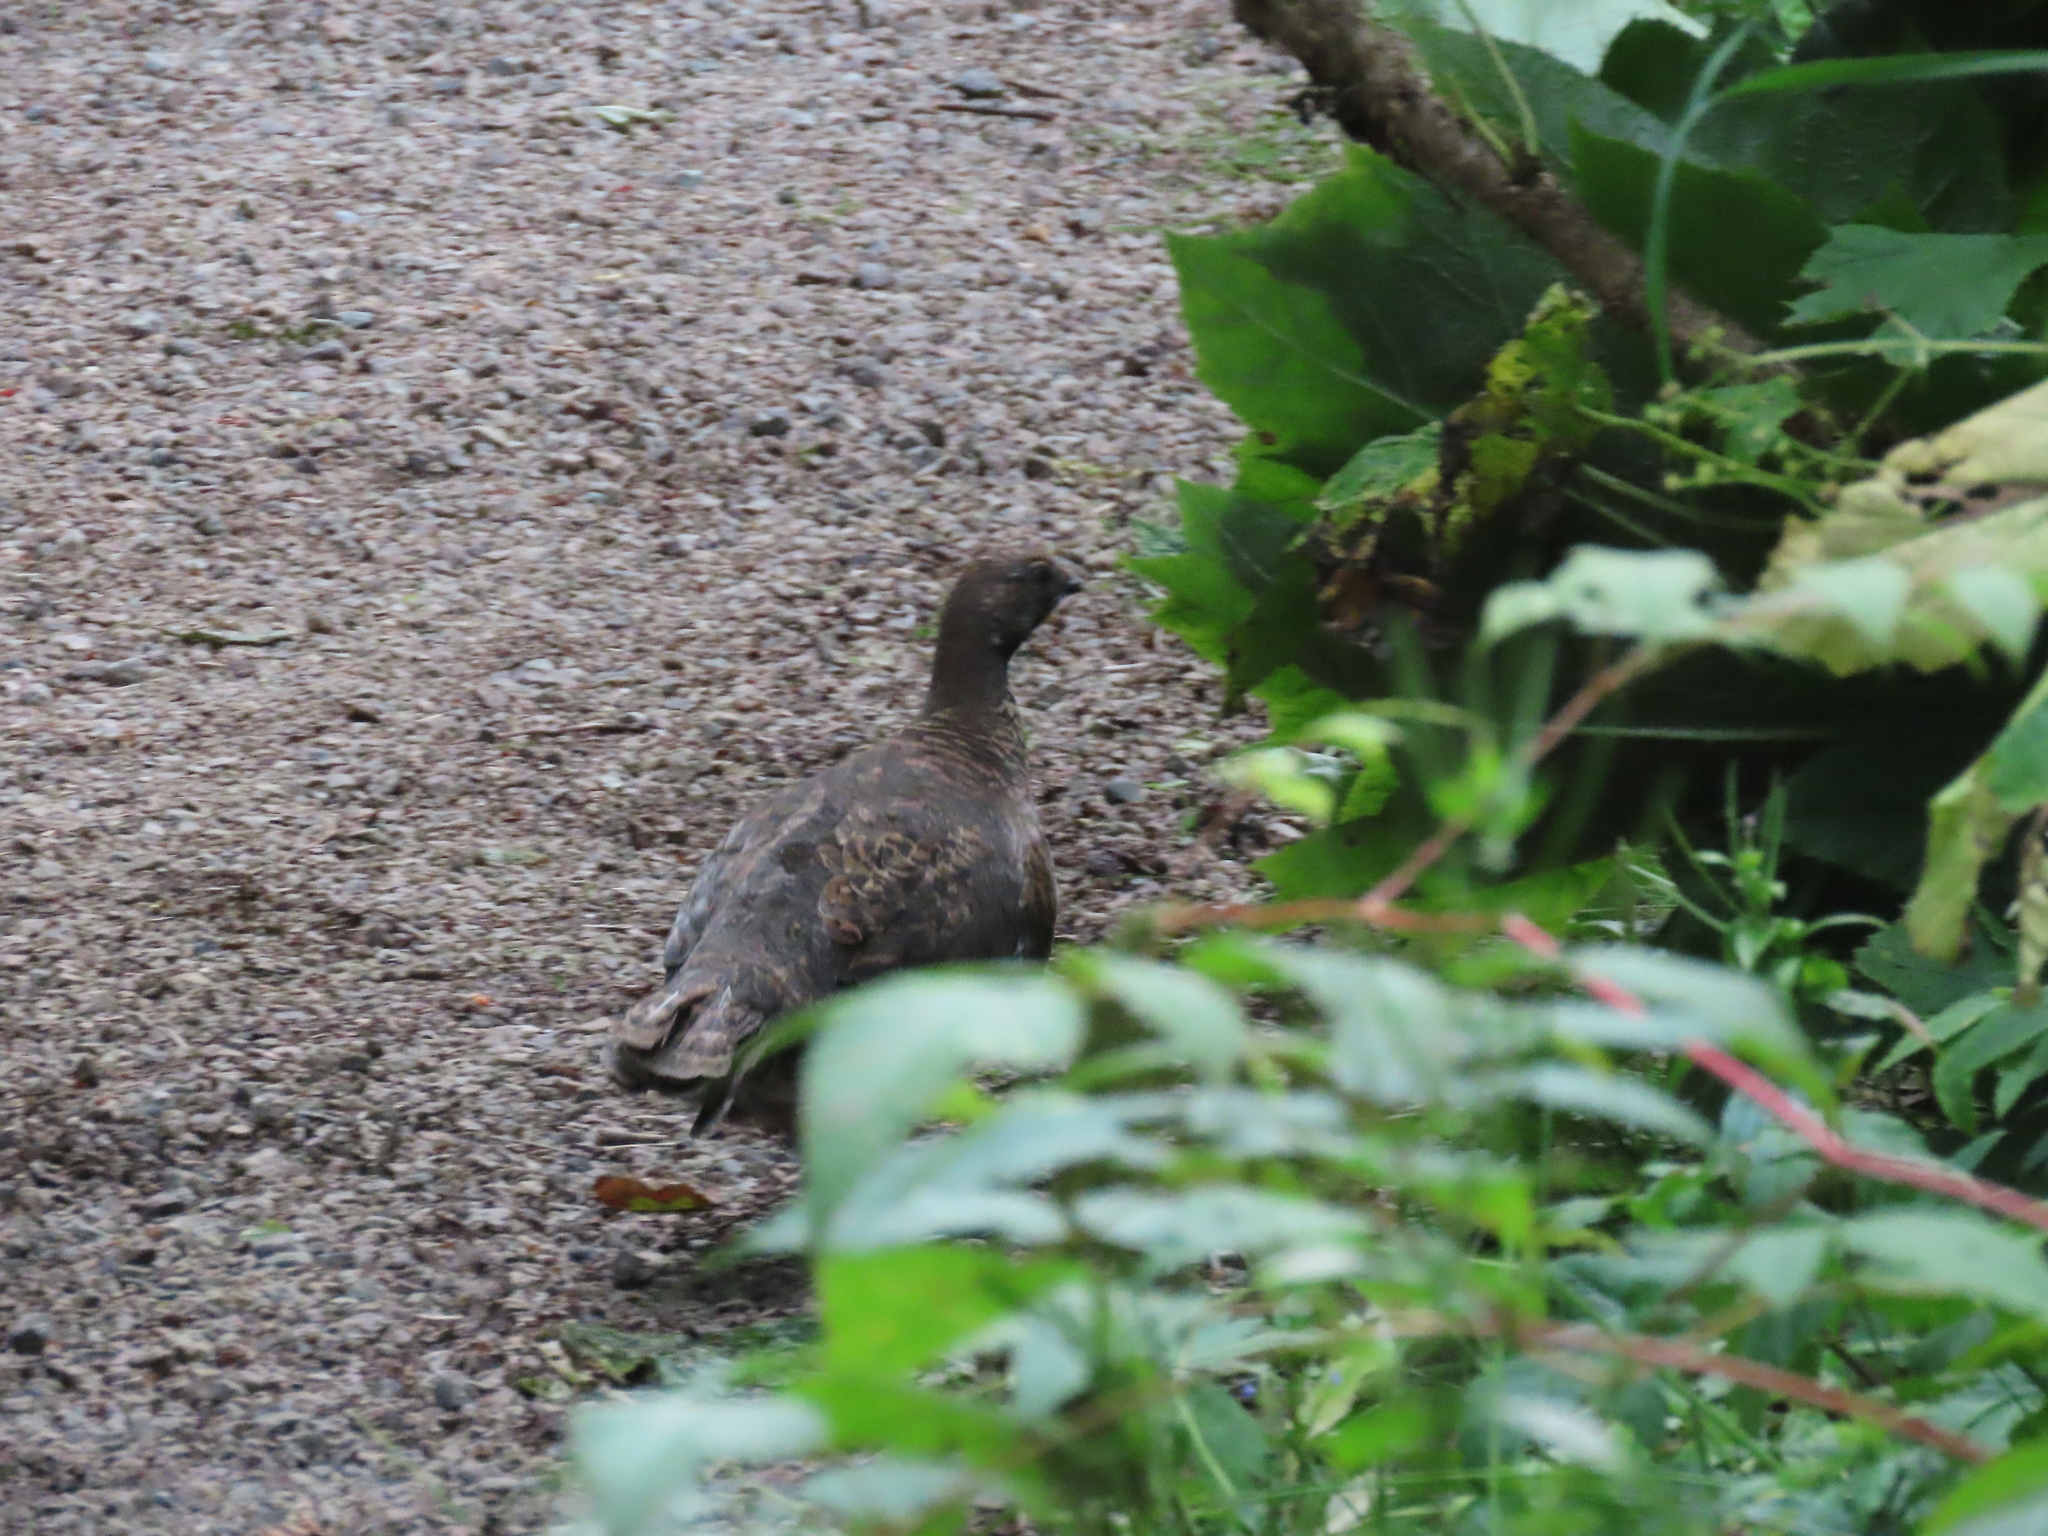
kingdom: Animalia
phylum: Chordata
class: Aves
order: Galliformes
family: Phasianidae
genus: Dendragapus
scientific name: Dendragapus fuliginosus
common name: Sooty grouse
